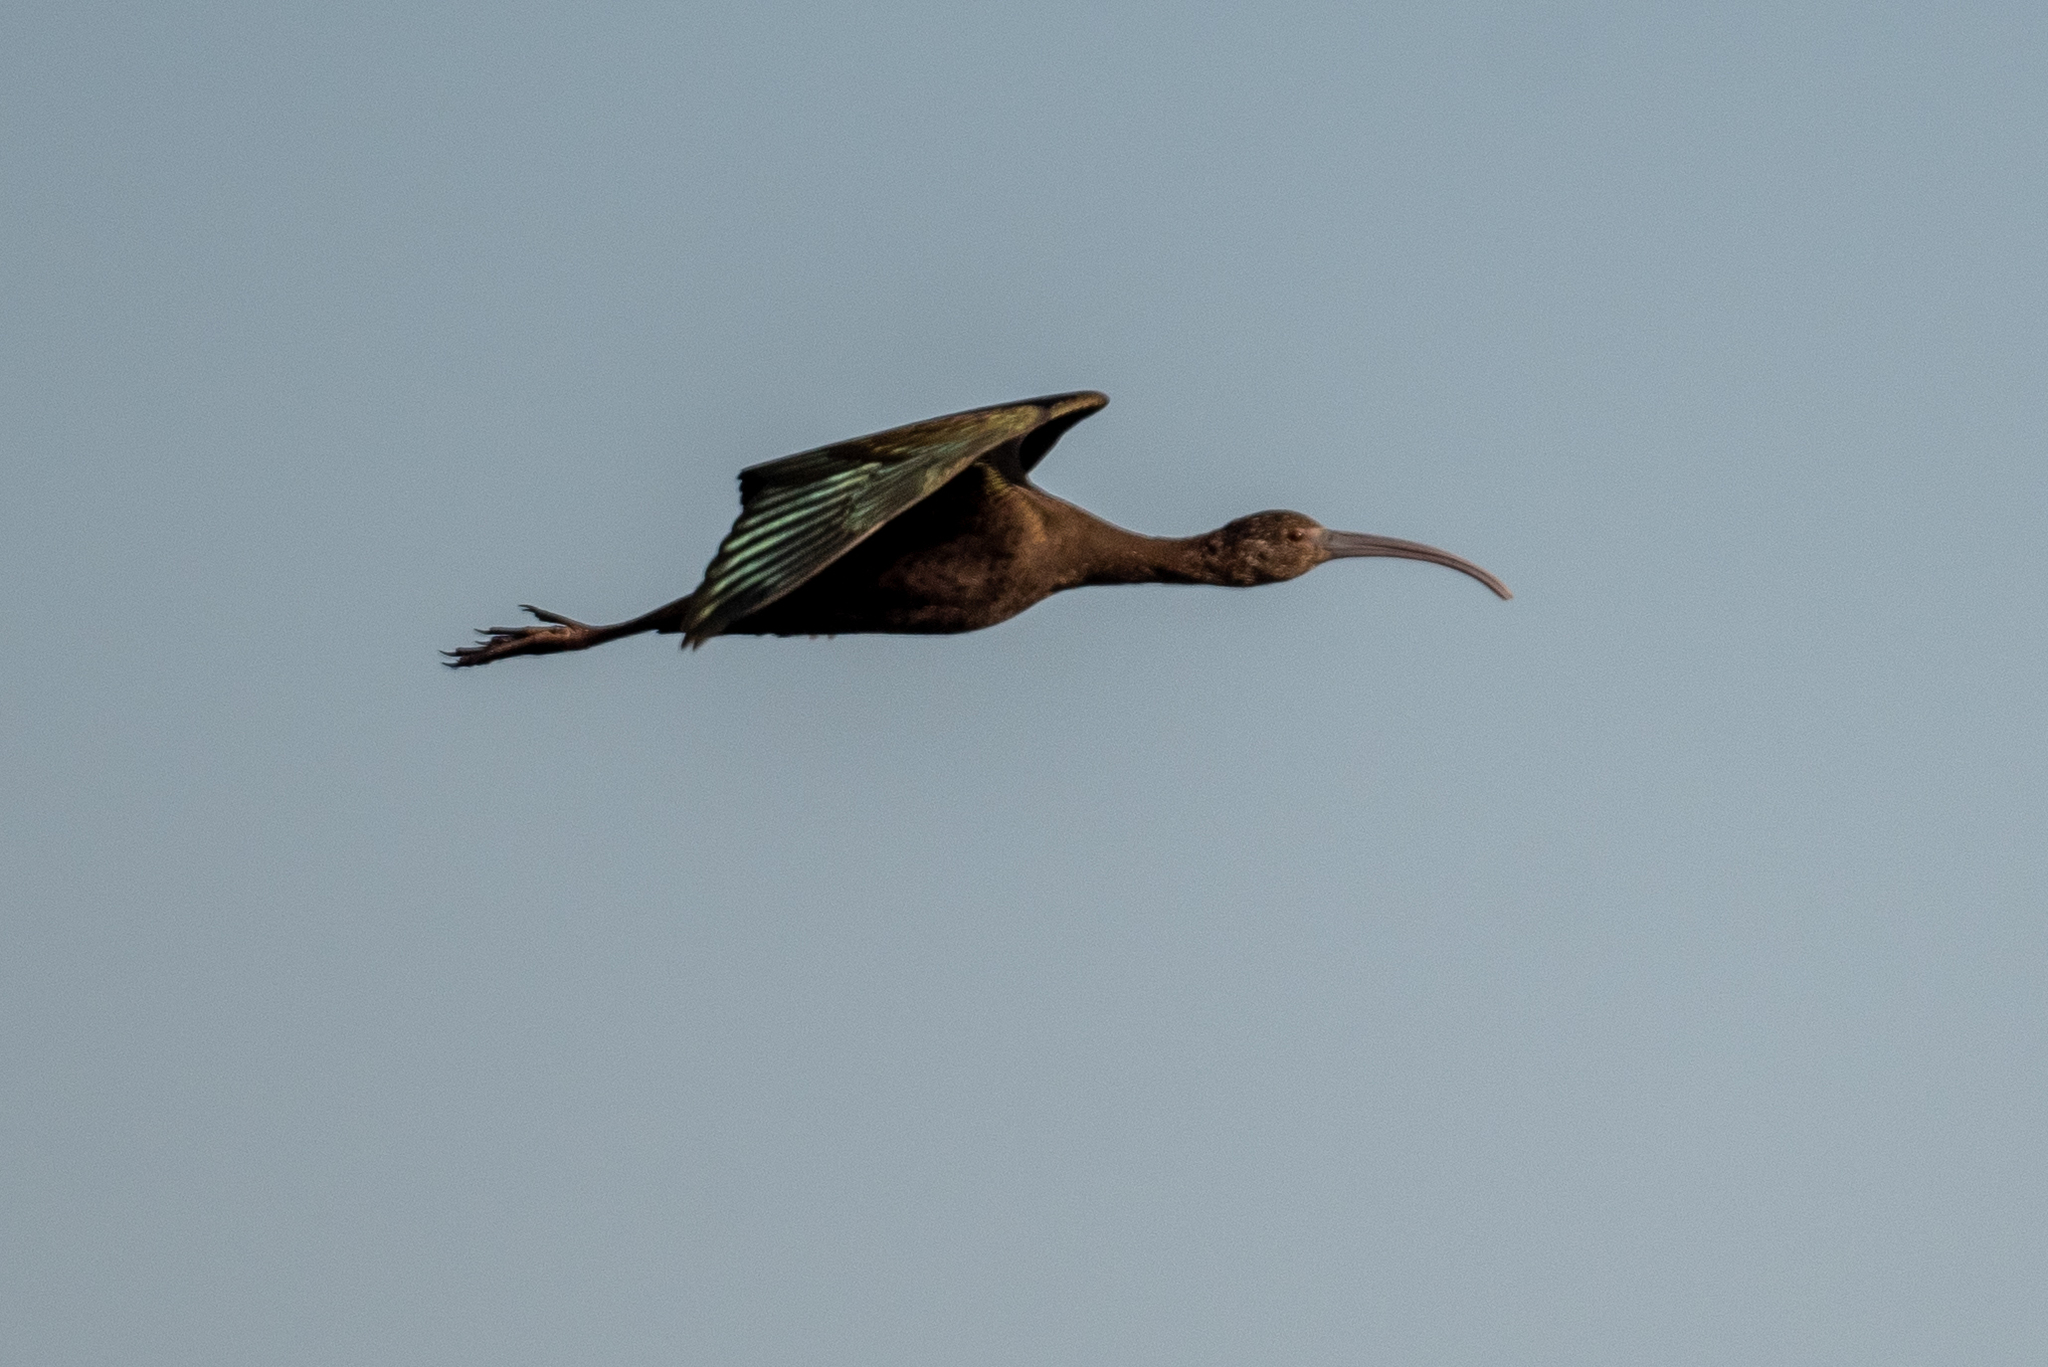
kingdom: Animalia
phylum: Chordata
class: Aves
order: Pelecaniformes
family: Threskiornithidae
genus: Plegadis
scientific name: Plegadis chihi
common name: White-faced ibis
